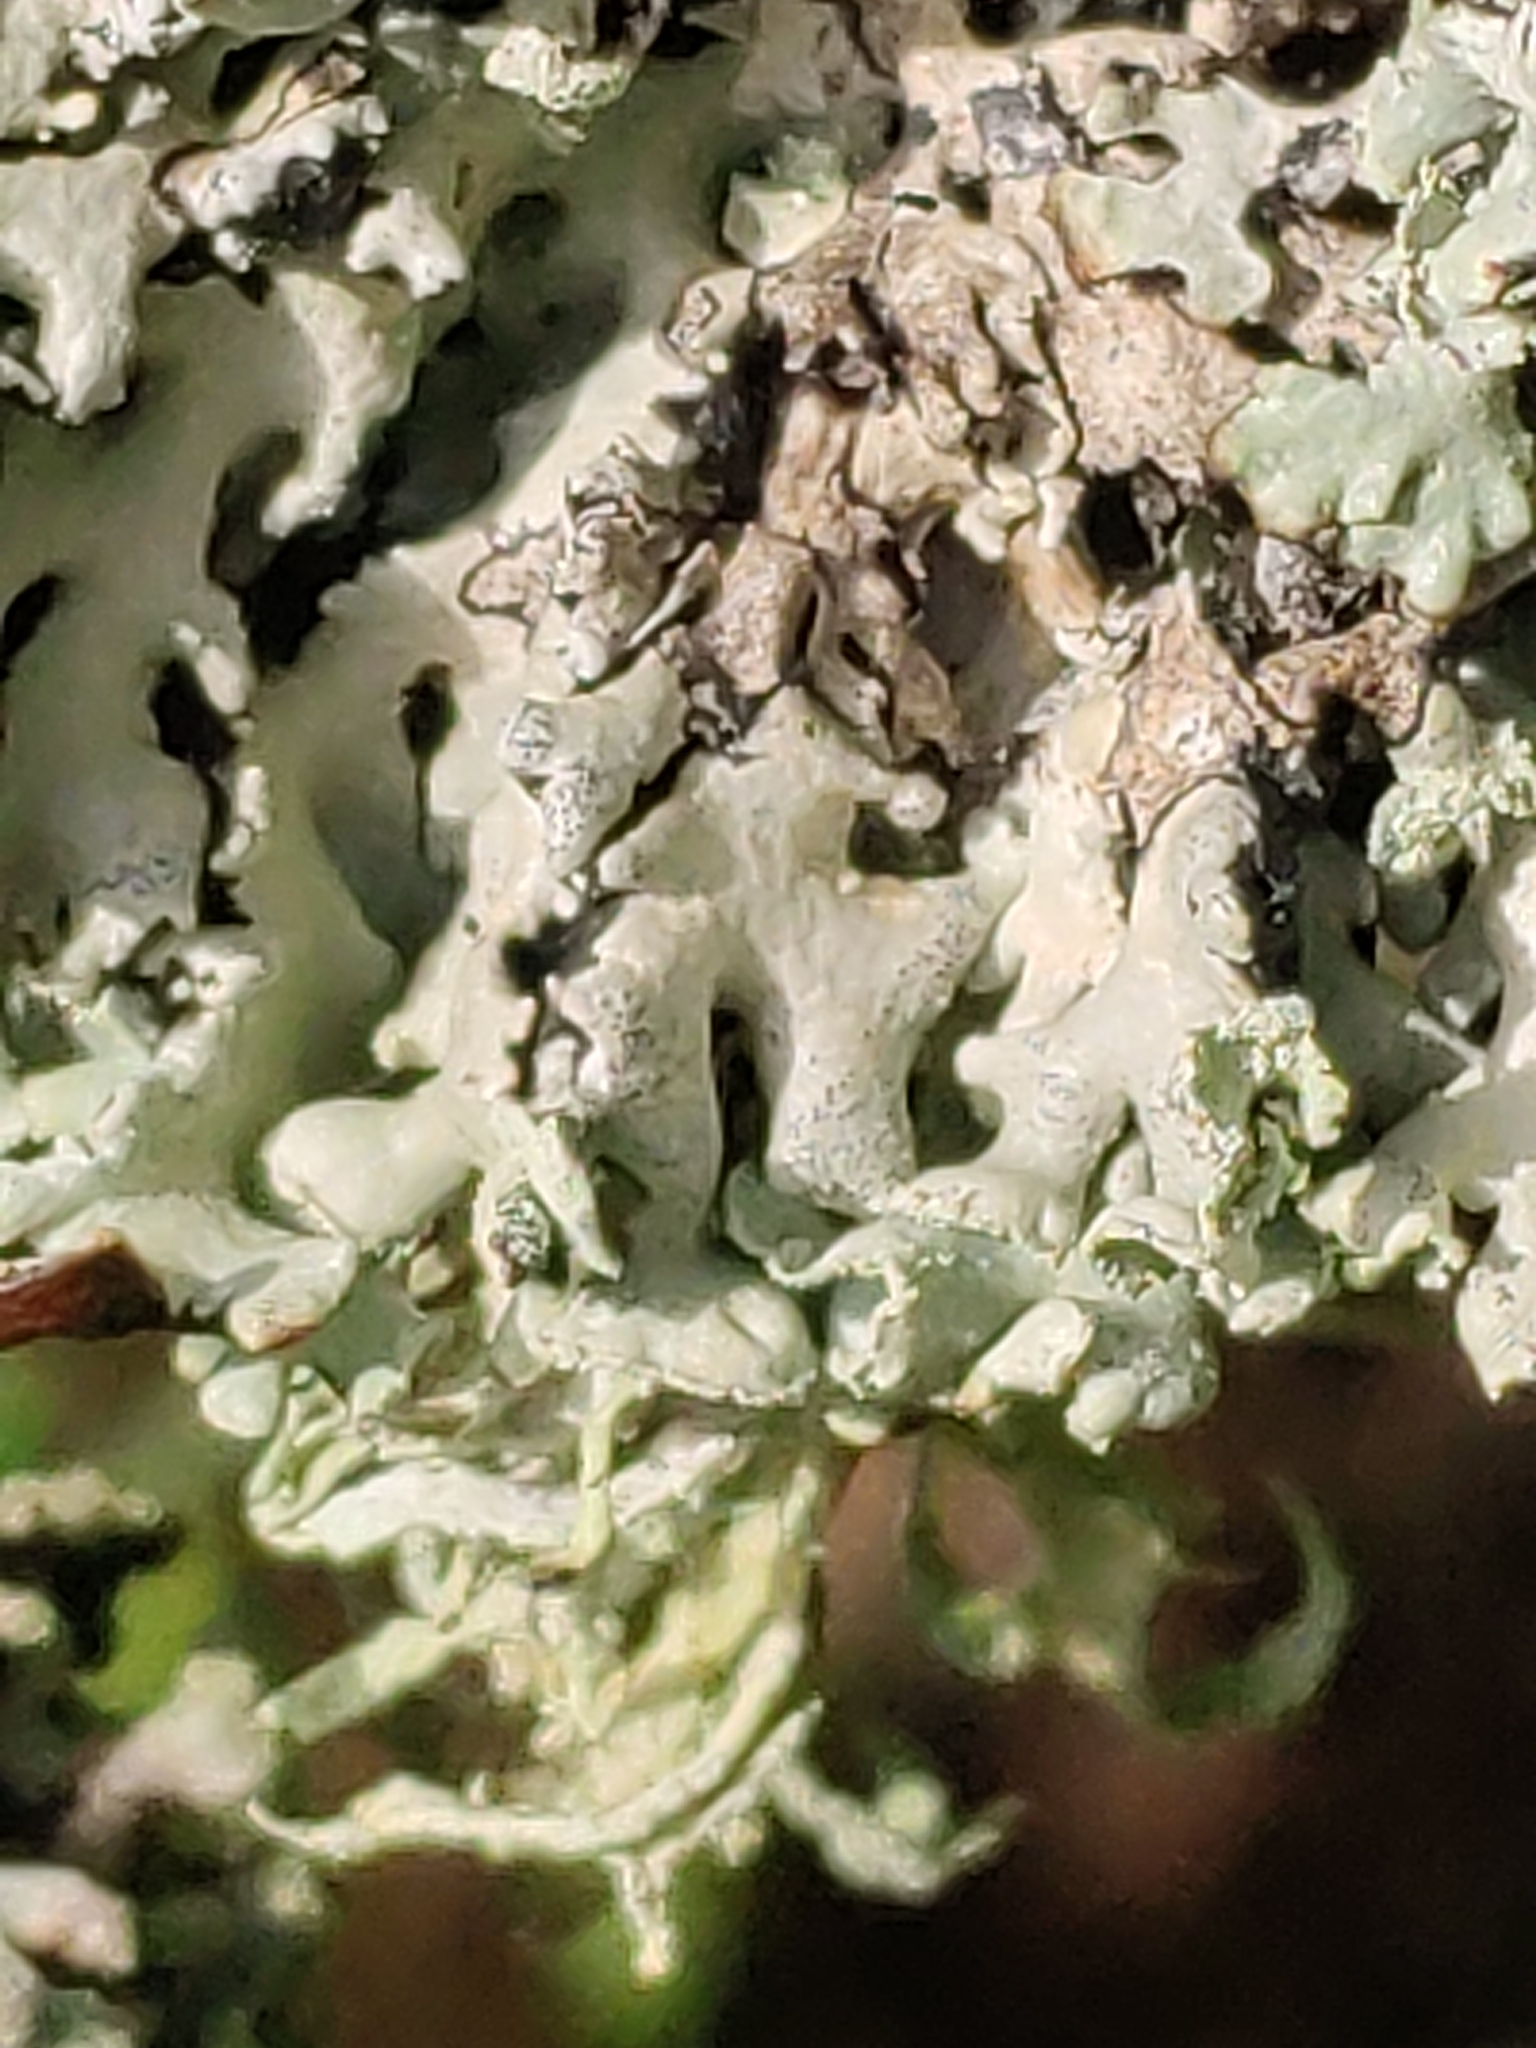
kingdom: Fungi
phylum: Ascomycota
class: Lecanoromycetes
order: Lecanorales
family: Parmeliaceae
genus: Hypogymnia
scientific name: Hypogymnia physodes
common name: Dark crottle
